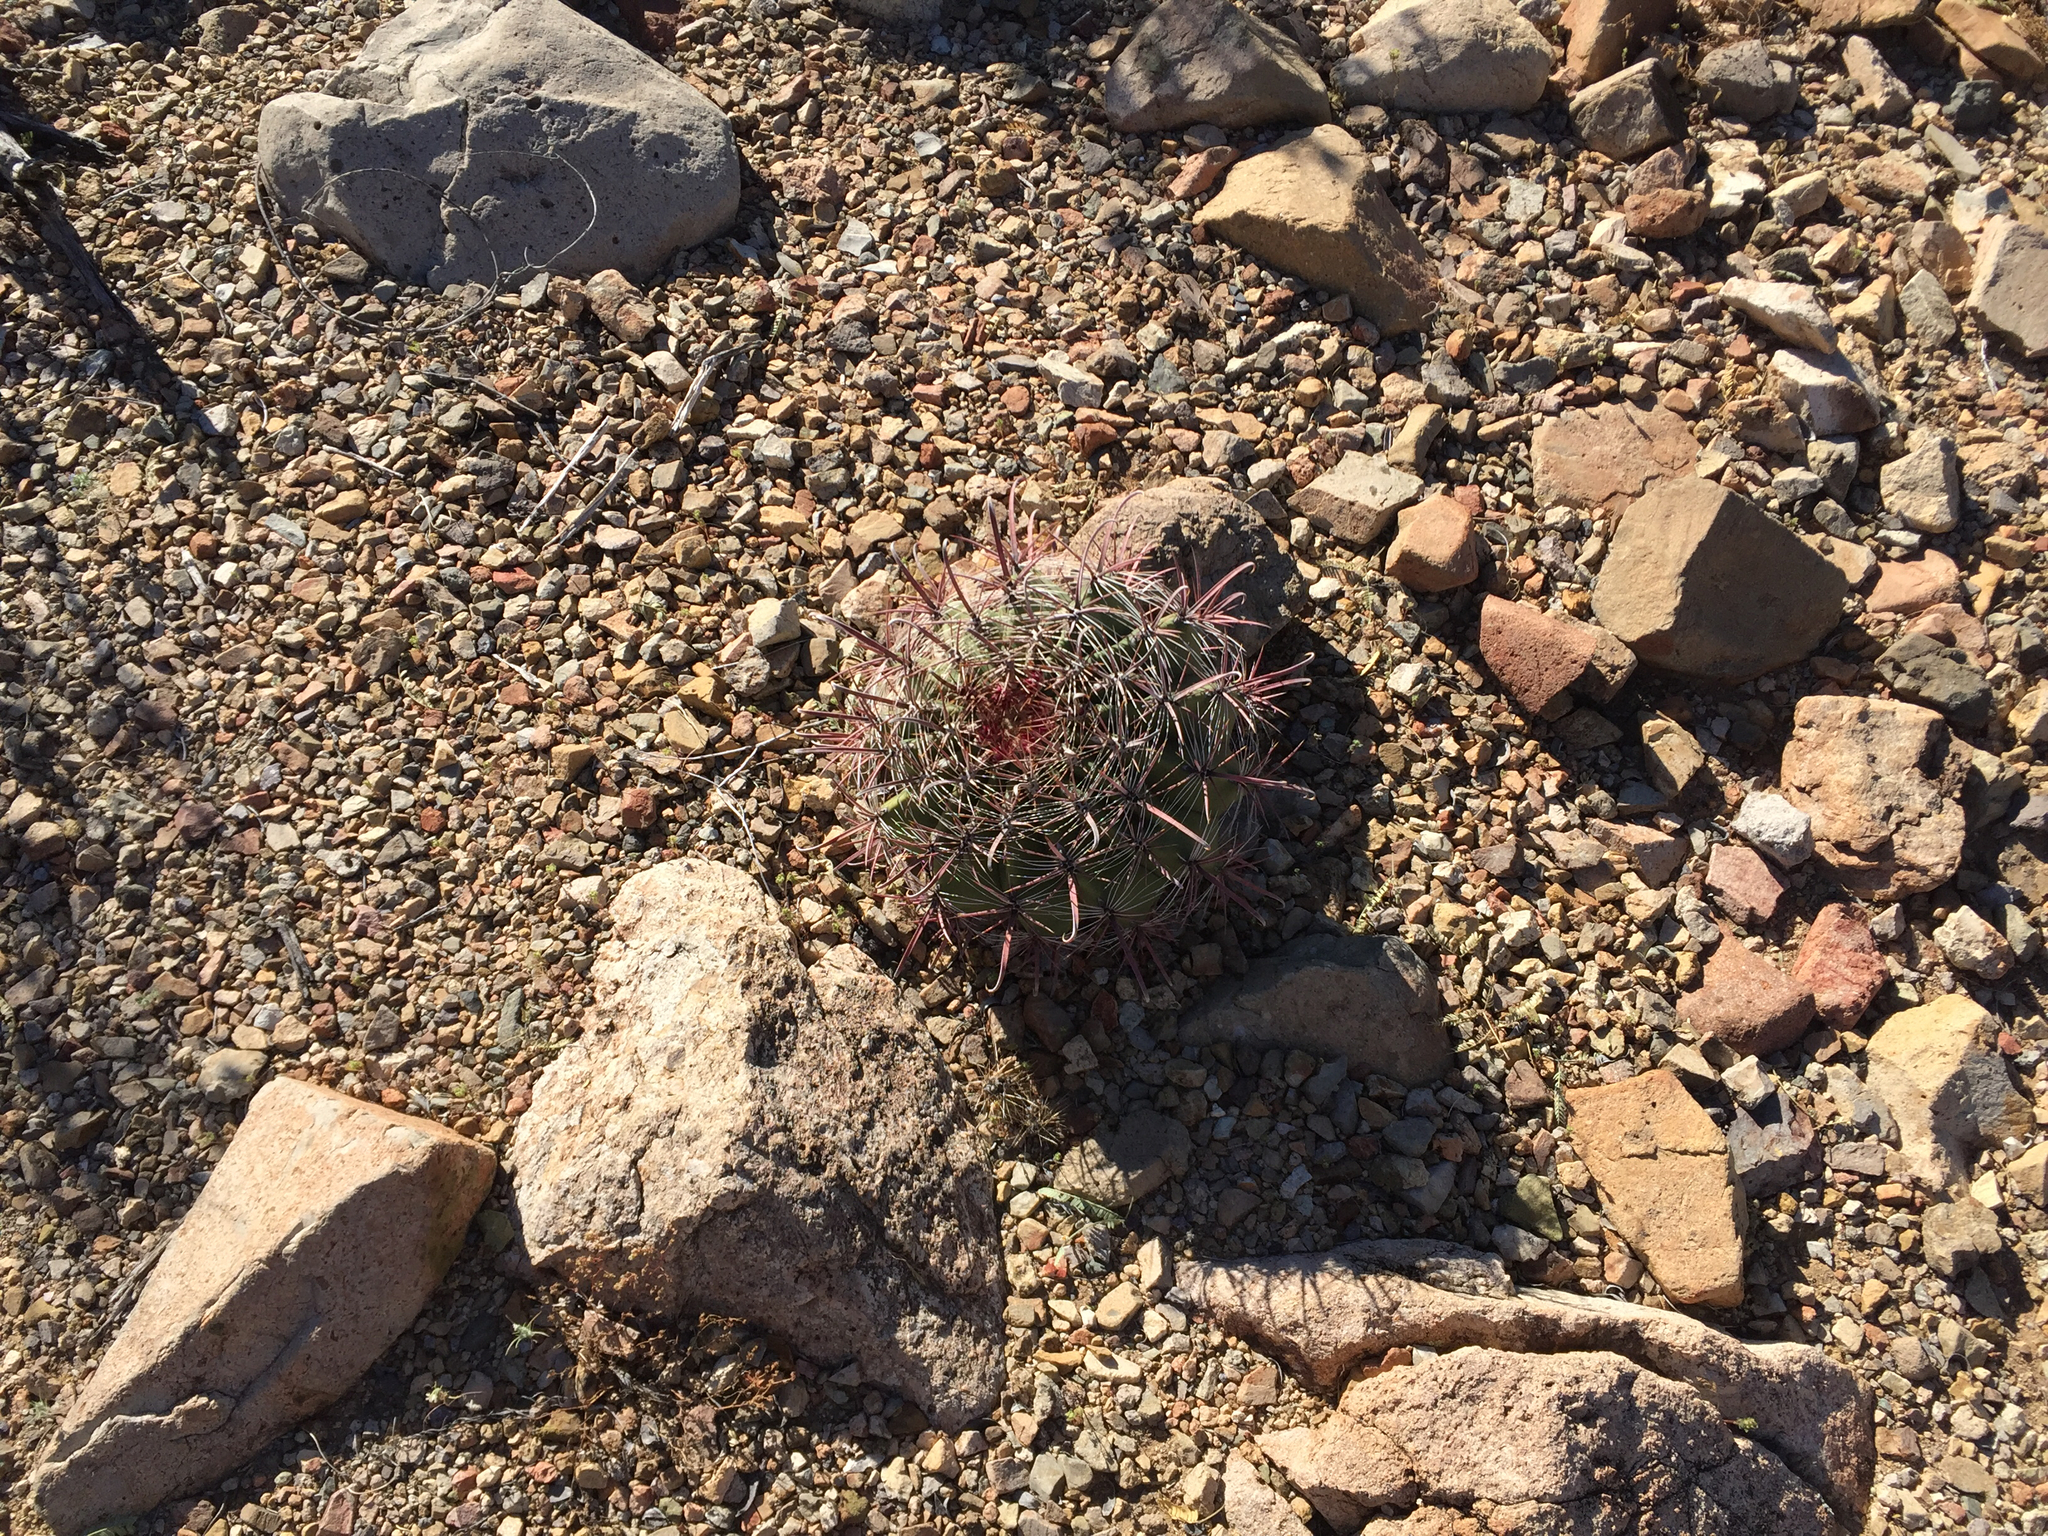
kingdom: Plantae
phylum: Tracheophyta
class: Magnoliopsida
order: Caryophyllales
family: Cactaceae
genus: Ferocactus
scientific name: Ferocactus wislizeni
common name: Candy barrel cactus
